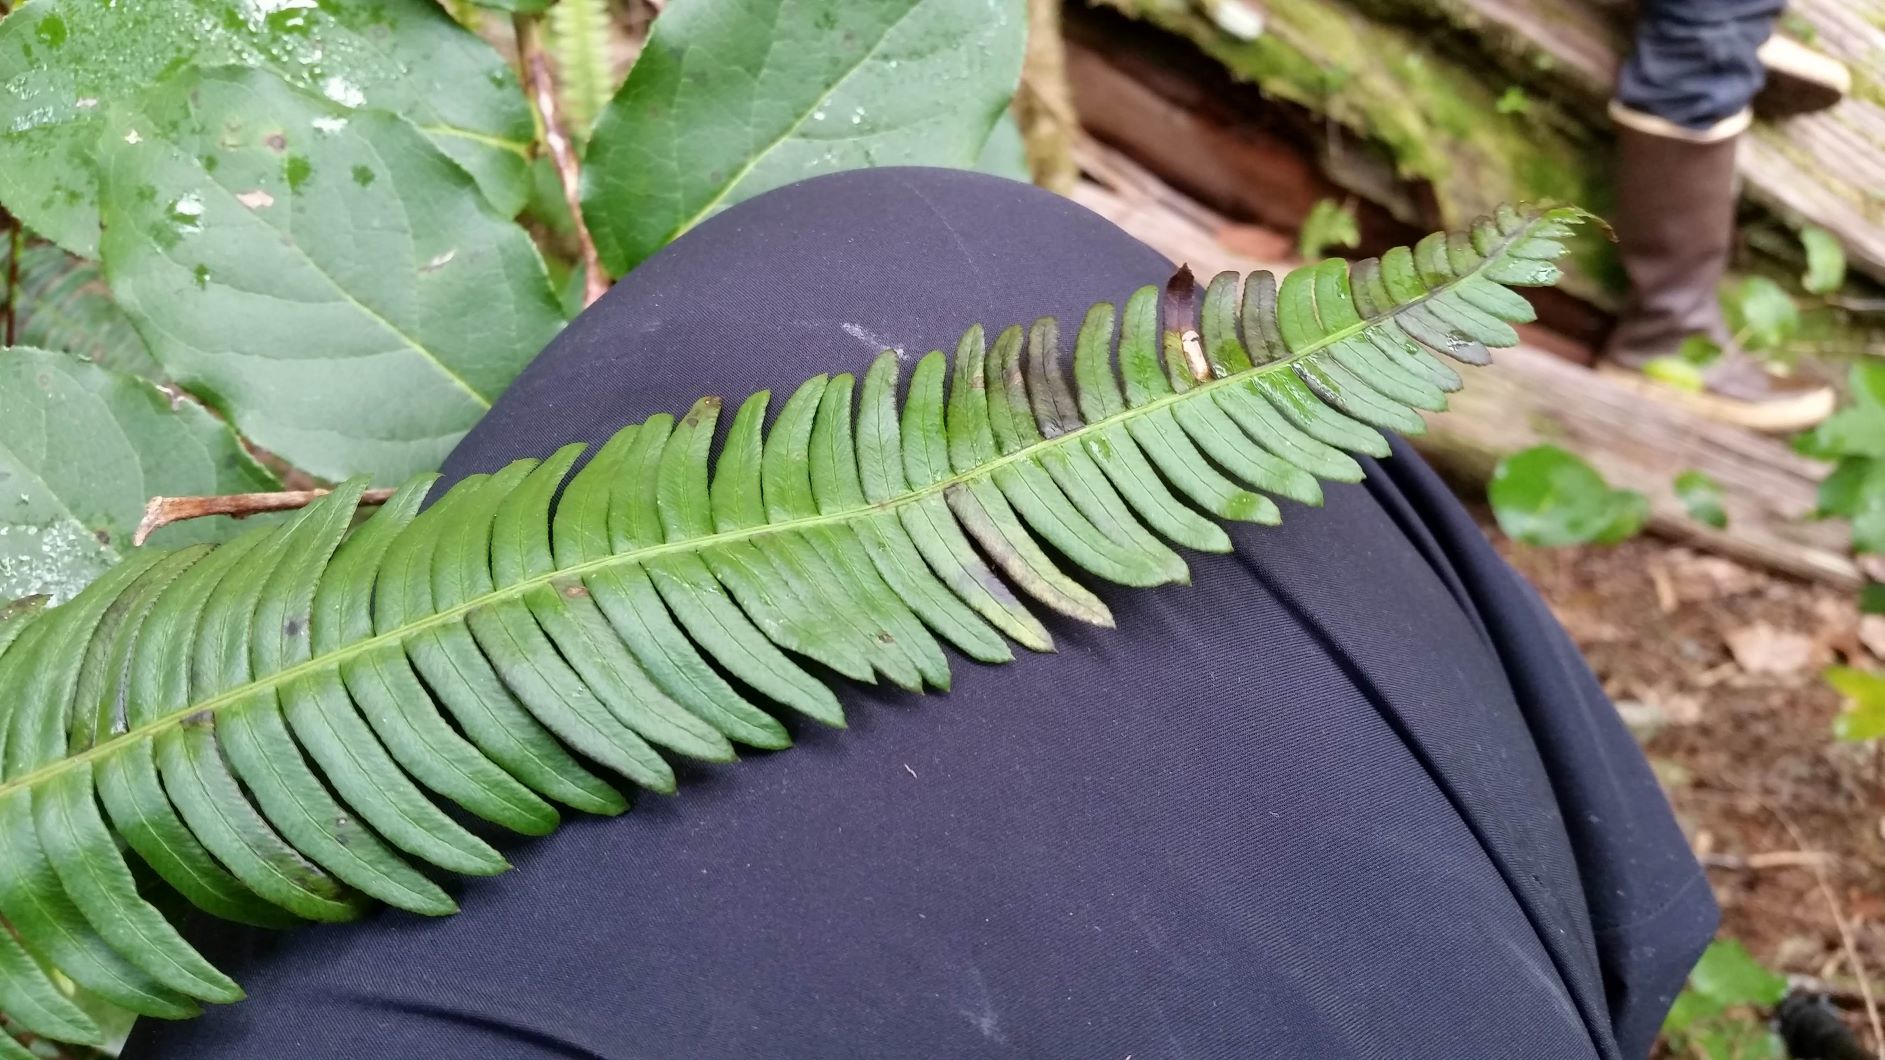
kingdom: Plantae
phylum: Tracheophyta
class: Polypodiopsida
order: Polypodiales
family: Blechnaceae
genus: Struthiopteris
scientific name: Struthiopteris spicant
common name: Deer fern
